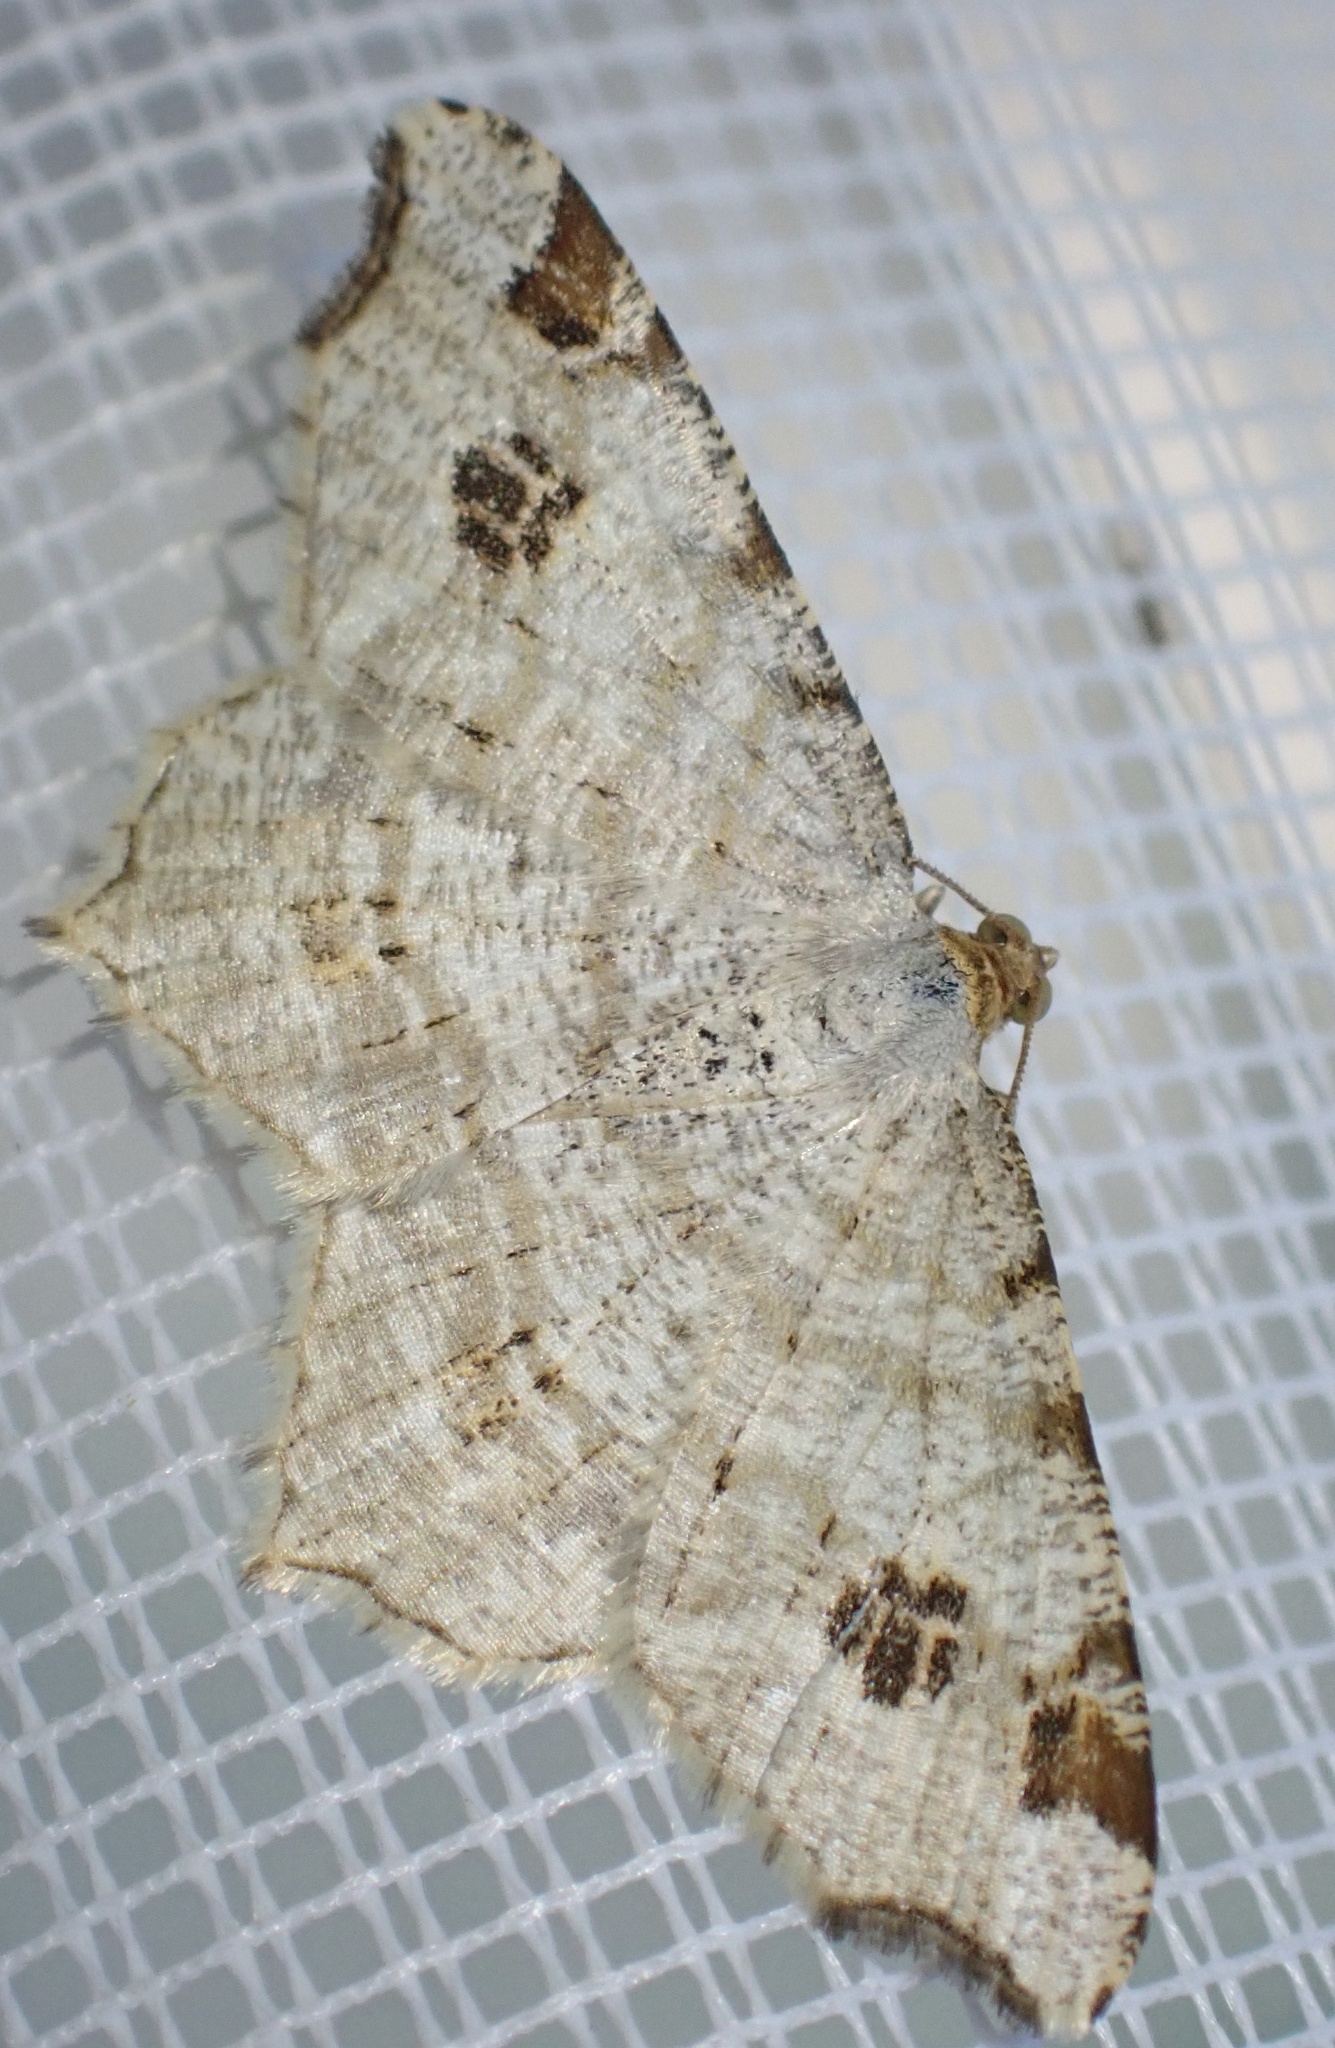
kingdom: Animalia
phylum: Arthropoda
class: Insecta
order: Lepidoptera
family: Geometridae
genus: Macaria
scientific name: Macaria notata
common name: Peacock moth
